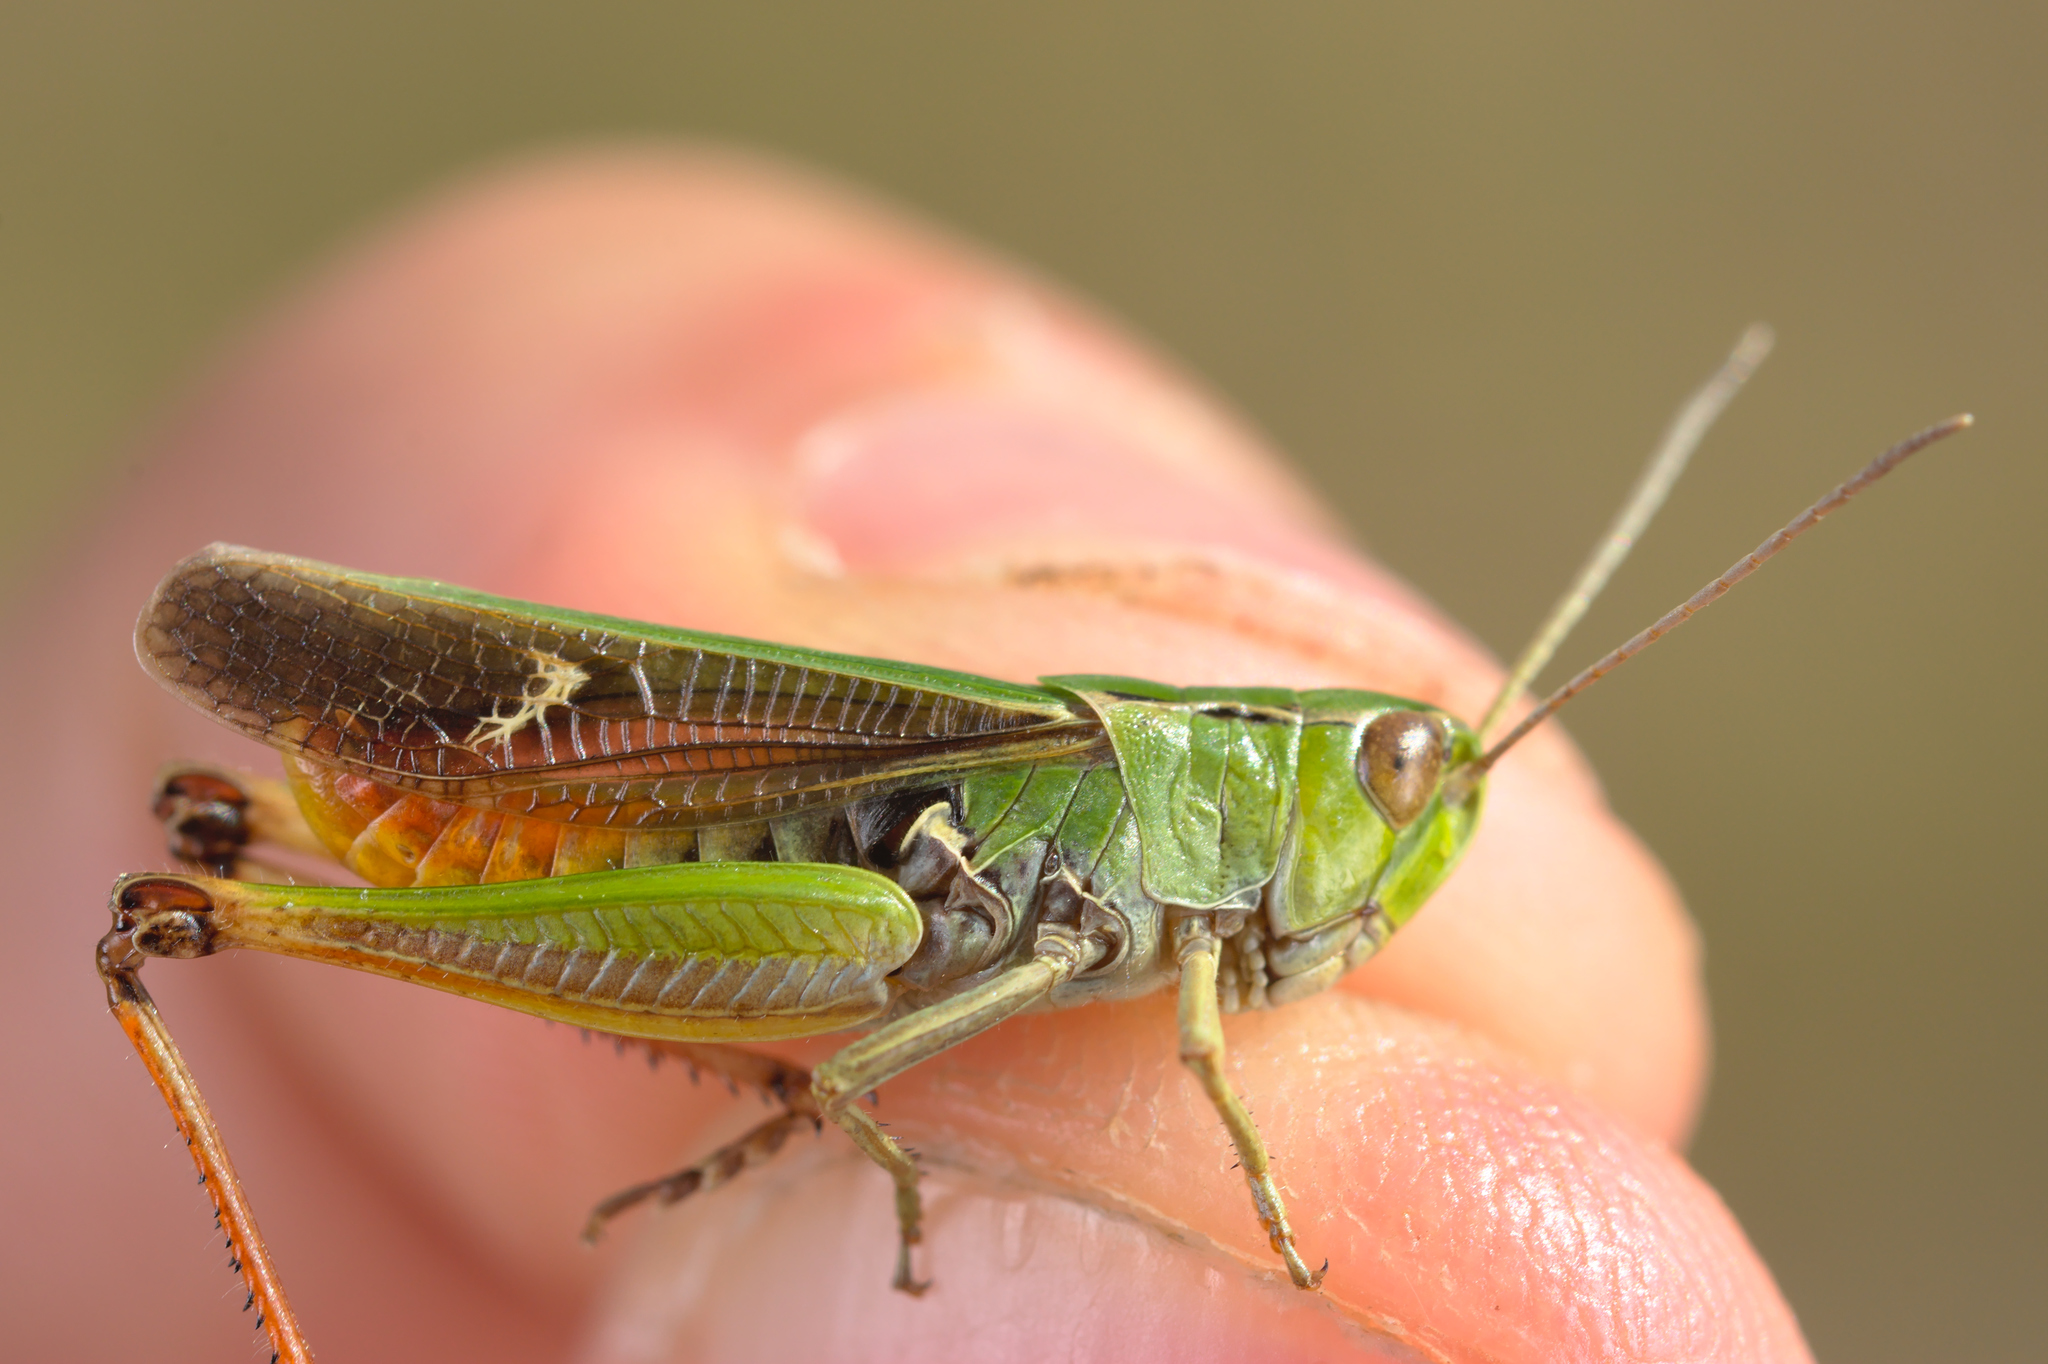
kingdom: Animalia
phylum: Arthropoda
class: Insecta
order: Orthoptera
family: Acrididae
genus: Stenobothrus
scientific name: Stenobothrus lineatus
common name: Stripe-winged grasshopper
